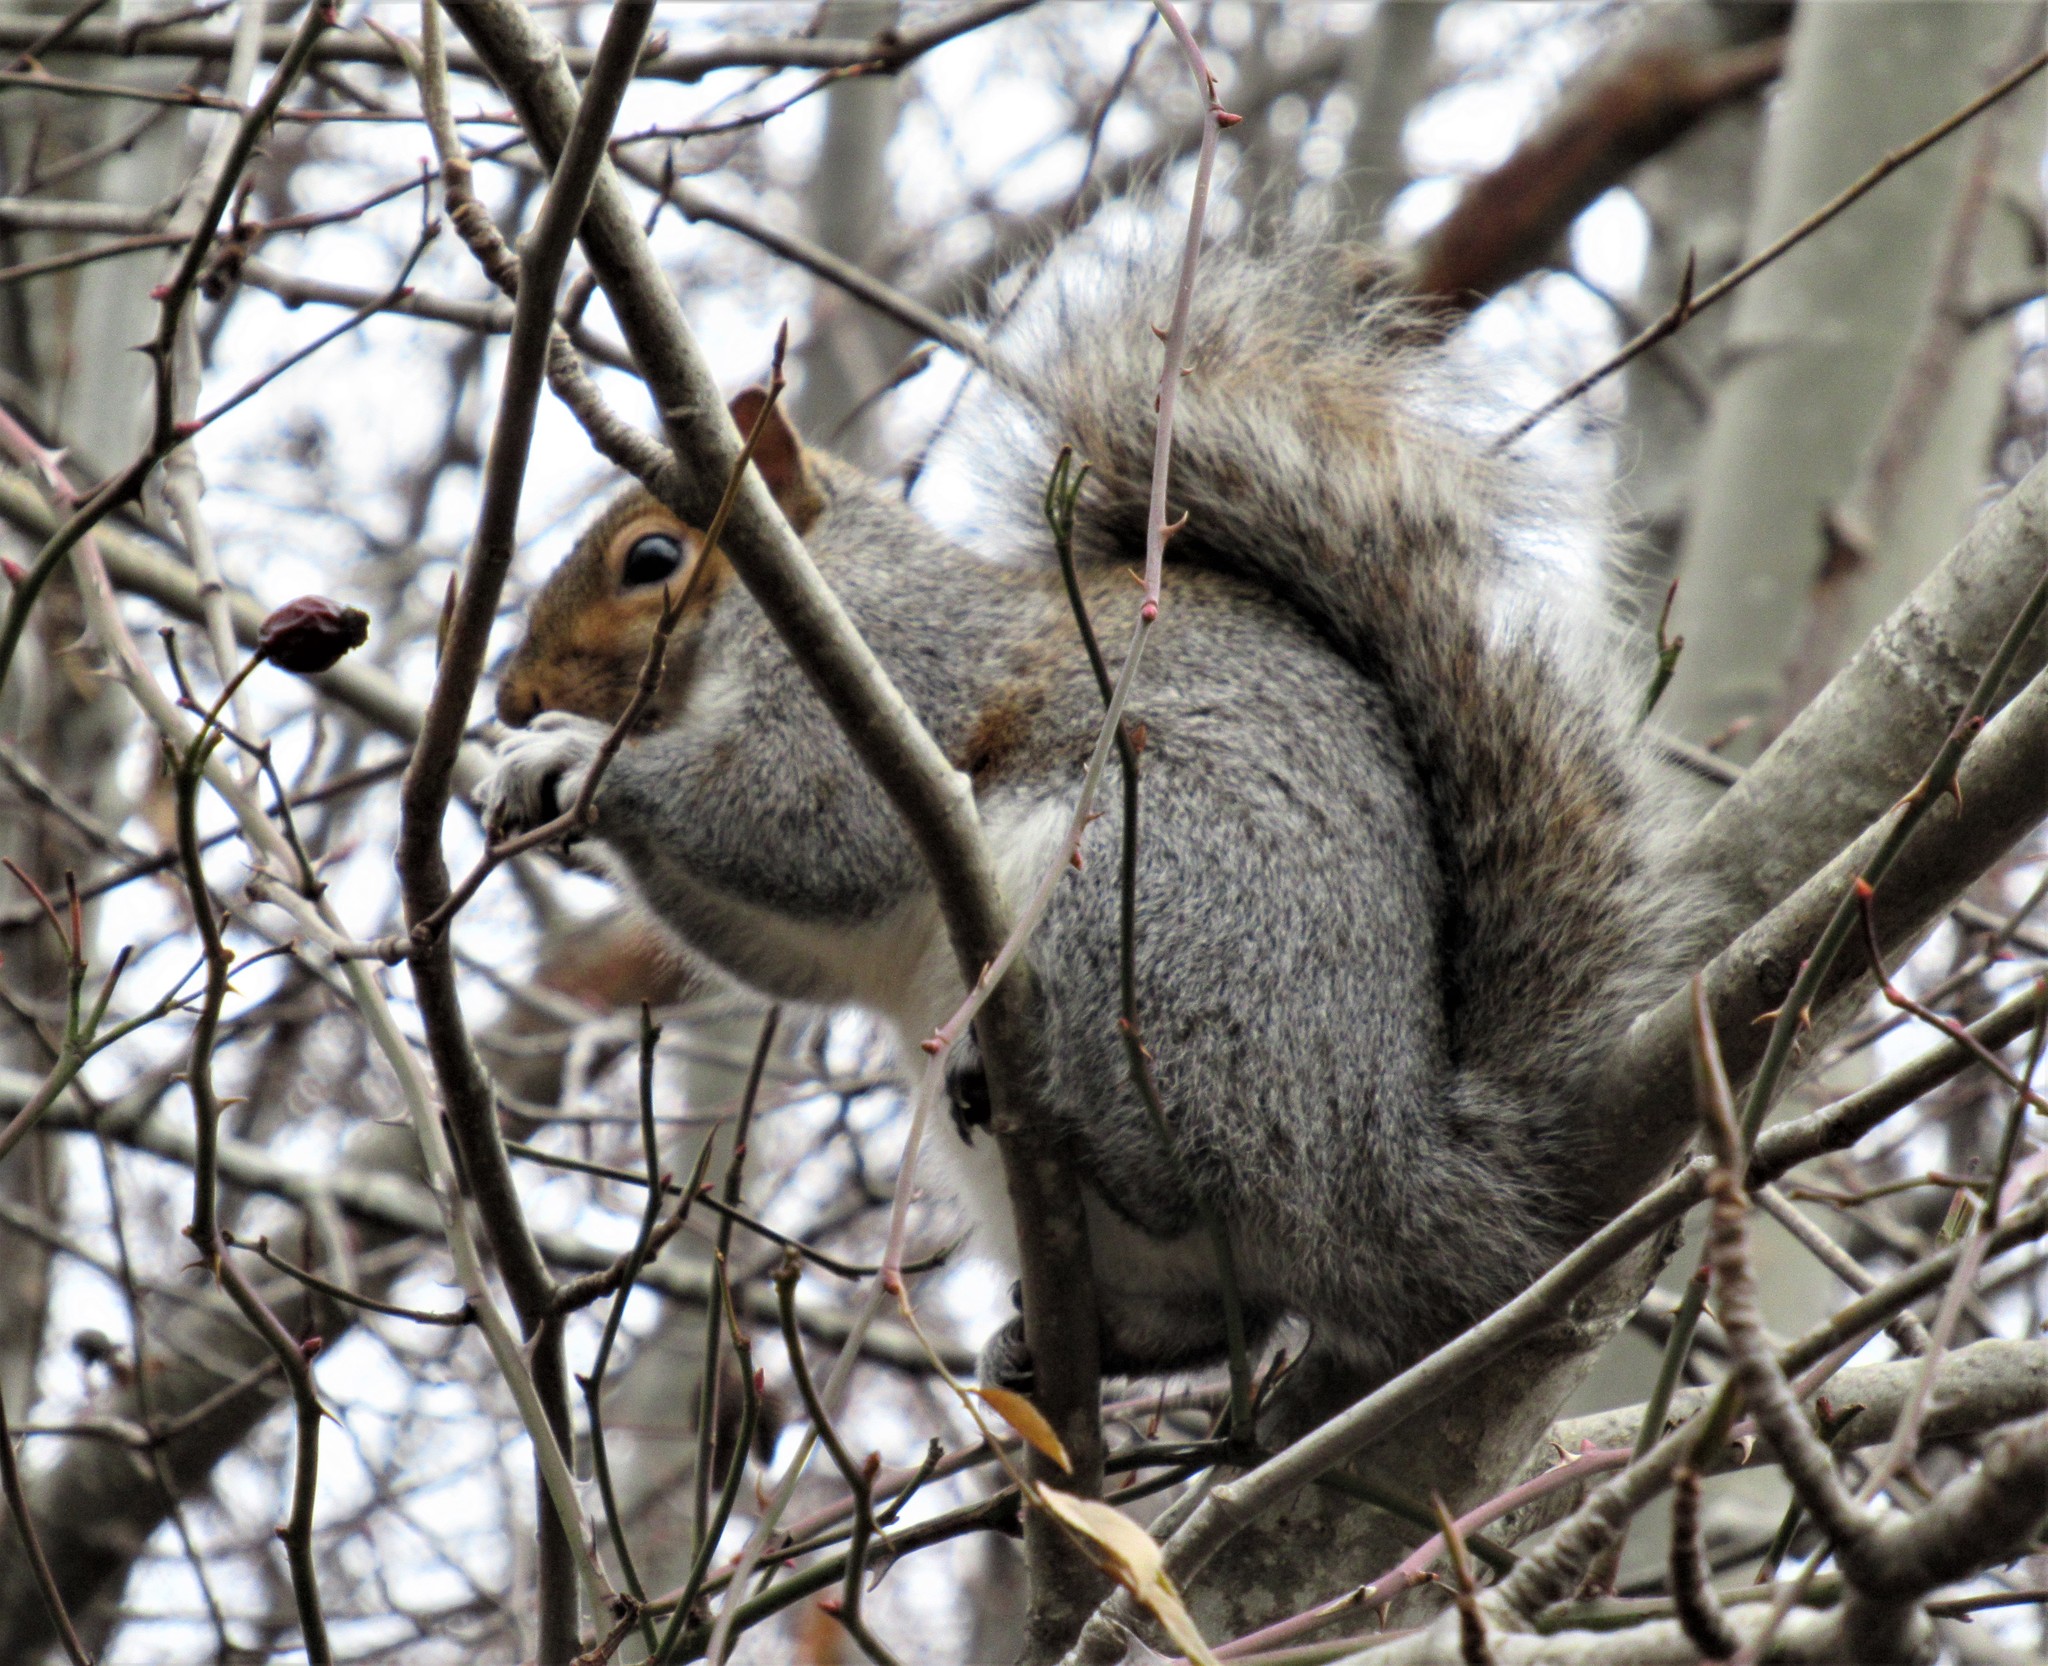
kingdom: Animalia
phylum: Chordata
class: Mammalia
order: Rodentia
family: Sciuridae
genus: Sciurus
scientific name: Sciurus carolinensis
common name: Eastern gray squirrel
